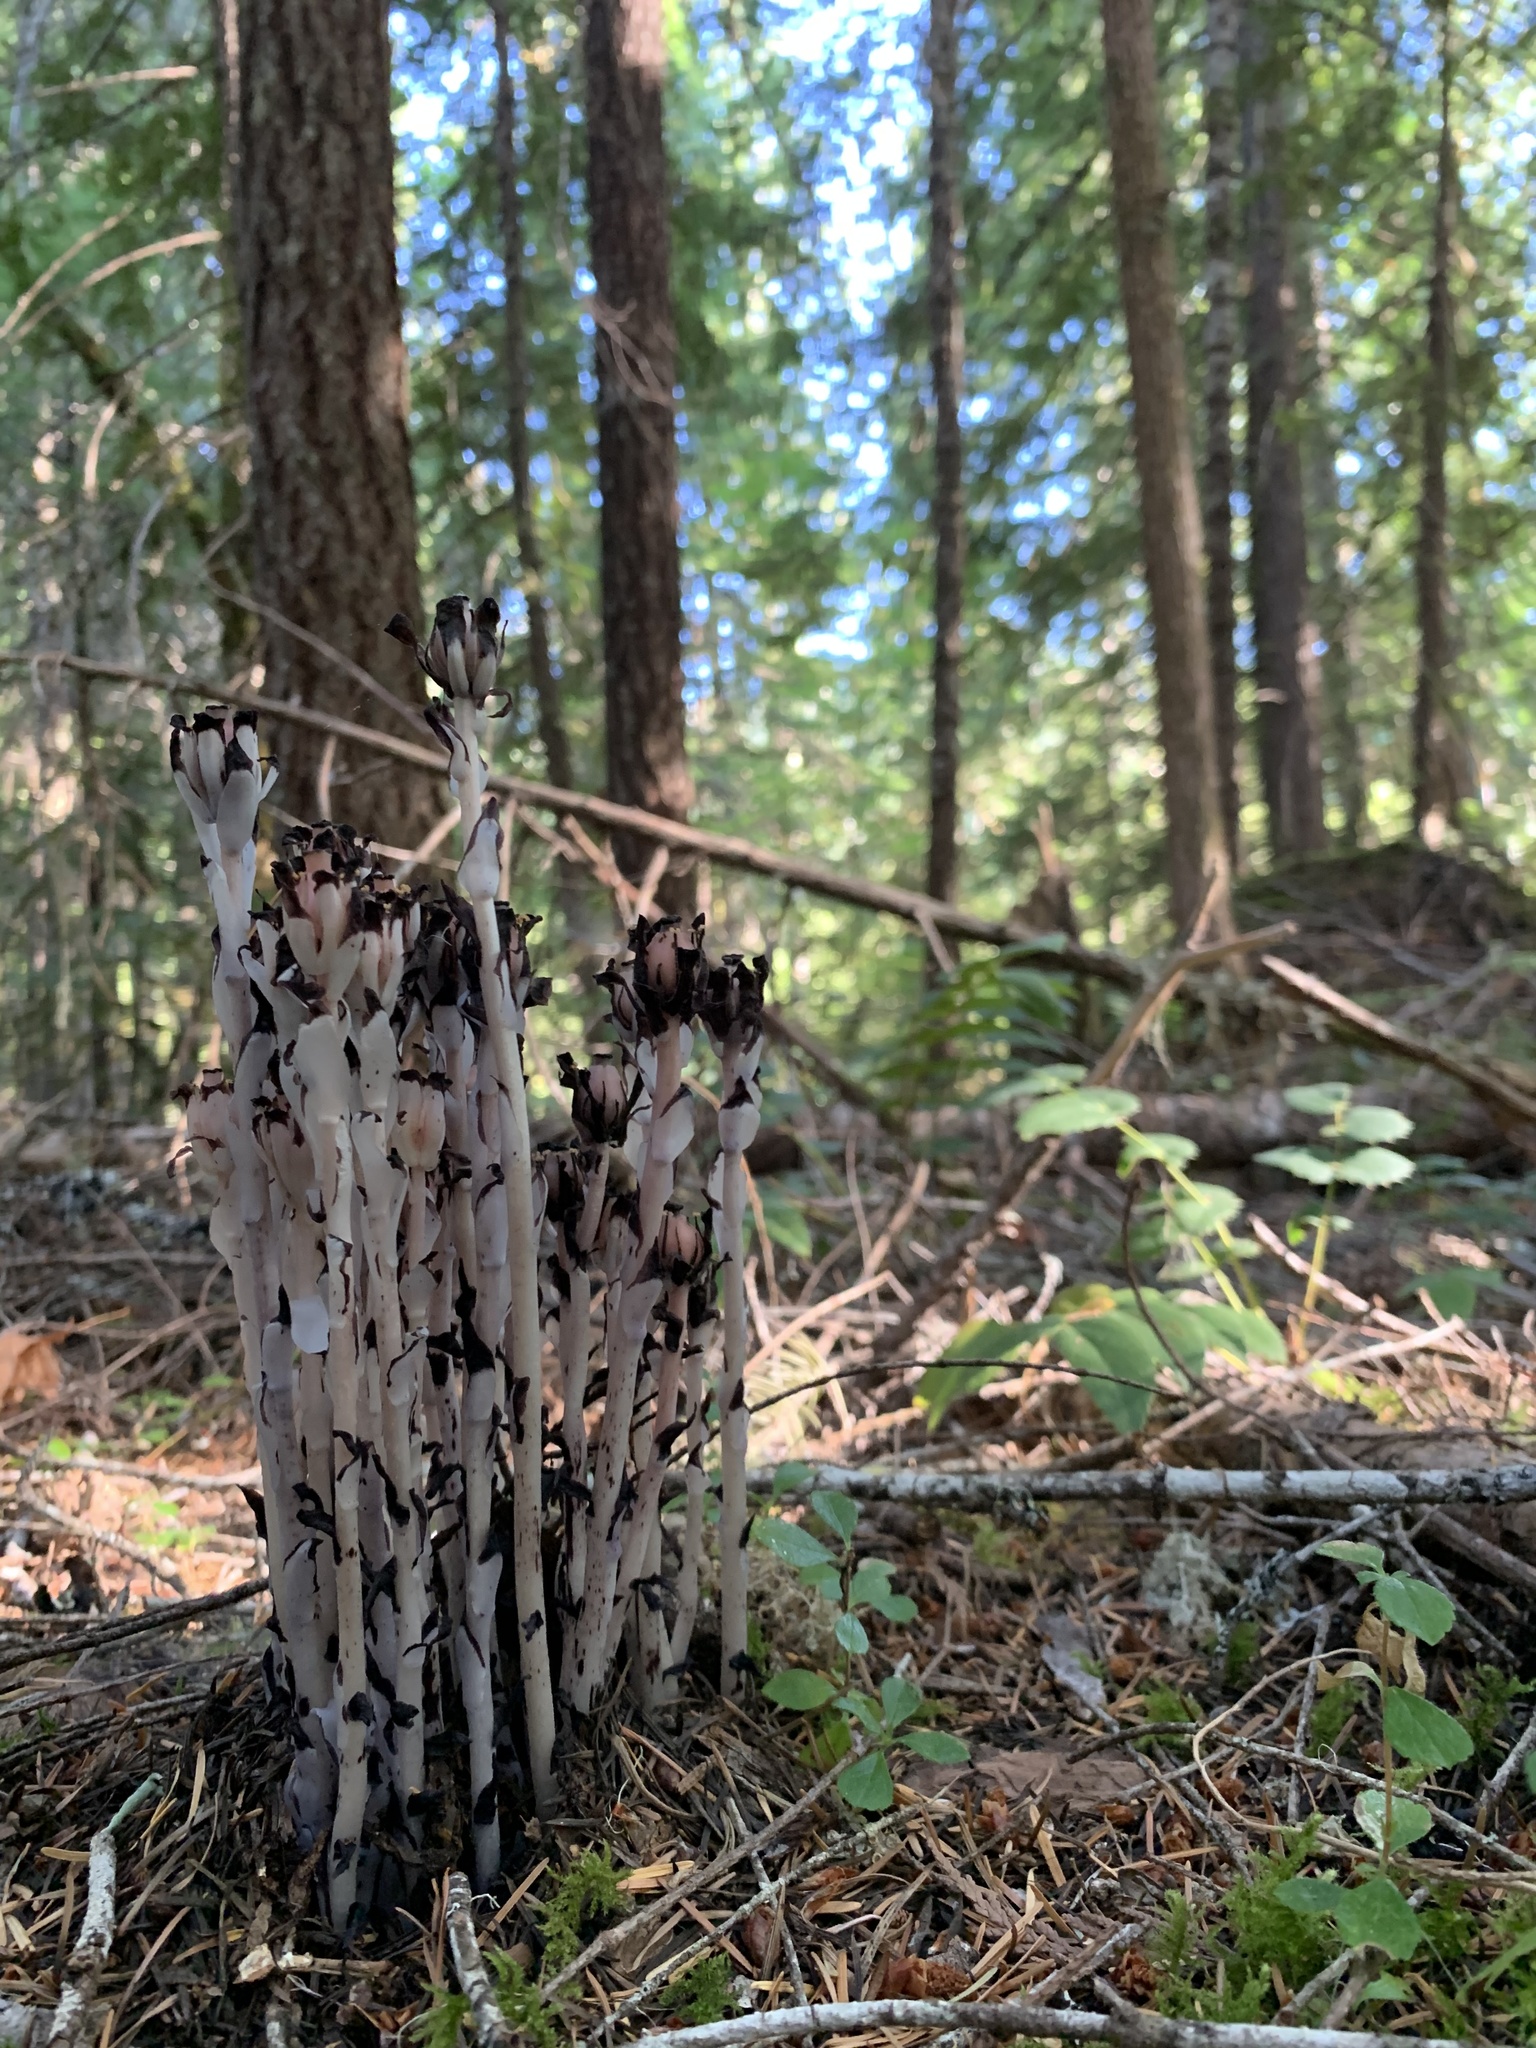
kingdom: Plantae
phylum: Tracheophyta
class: Magnoliopsida
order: Ericales
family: Ericaceae
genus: Monotropa
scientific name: Monotropa uniflora
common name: Convulsion root
